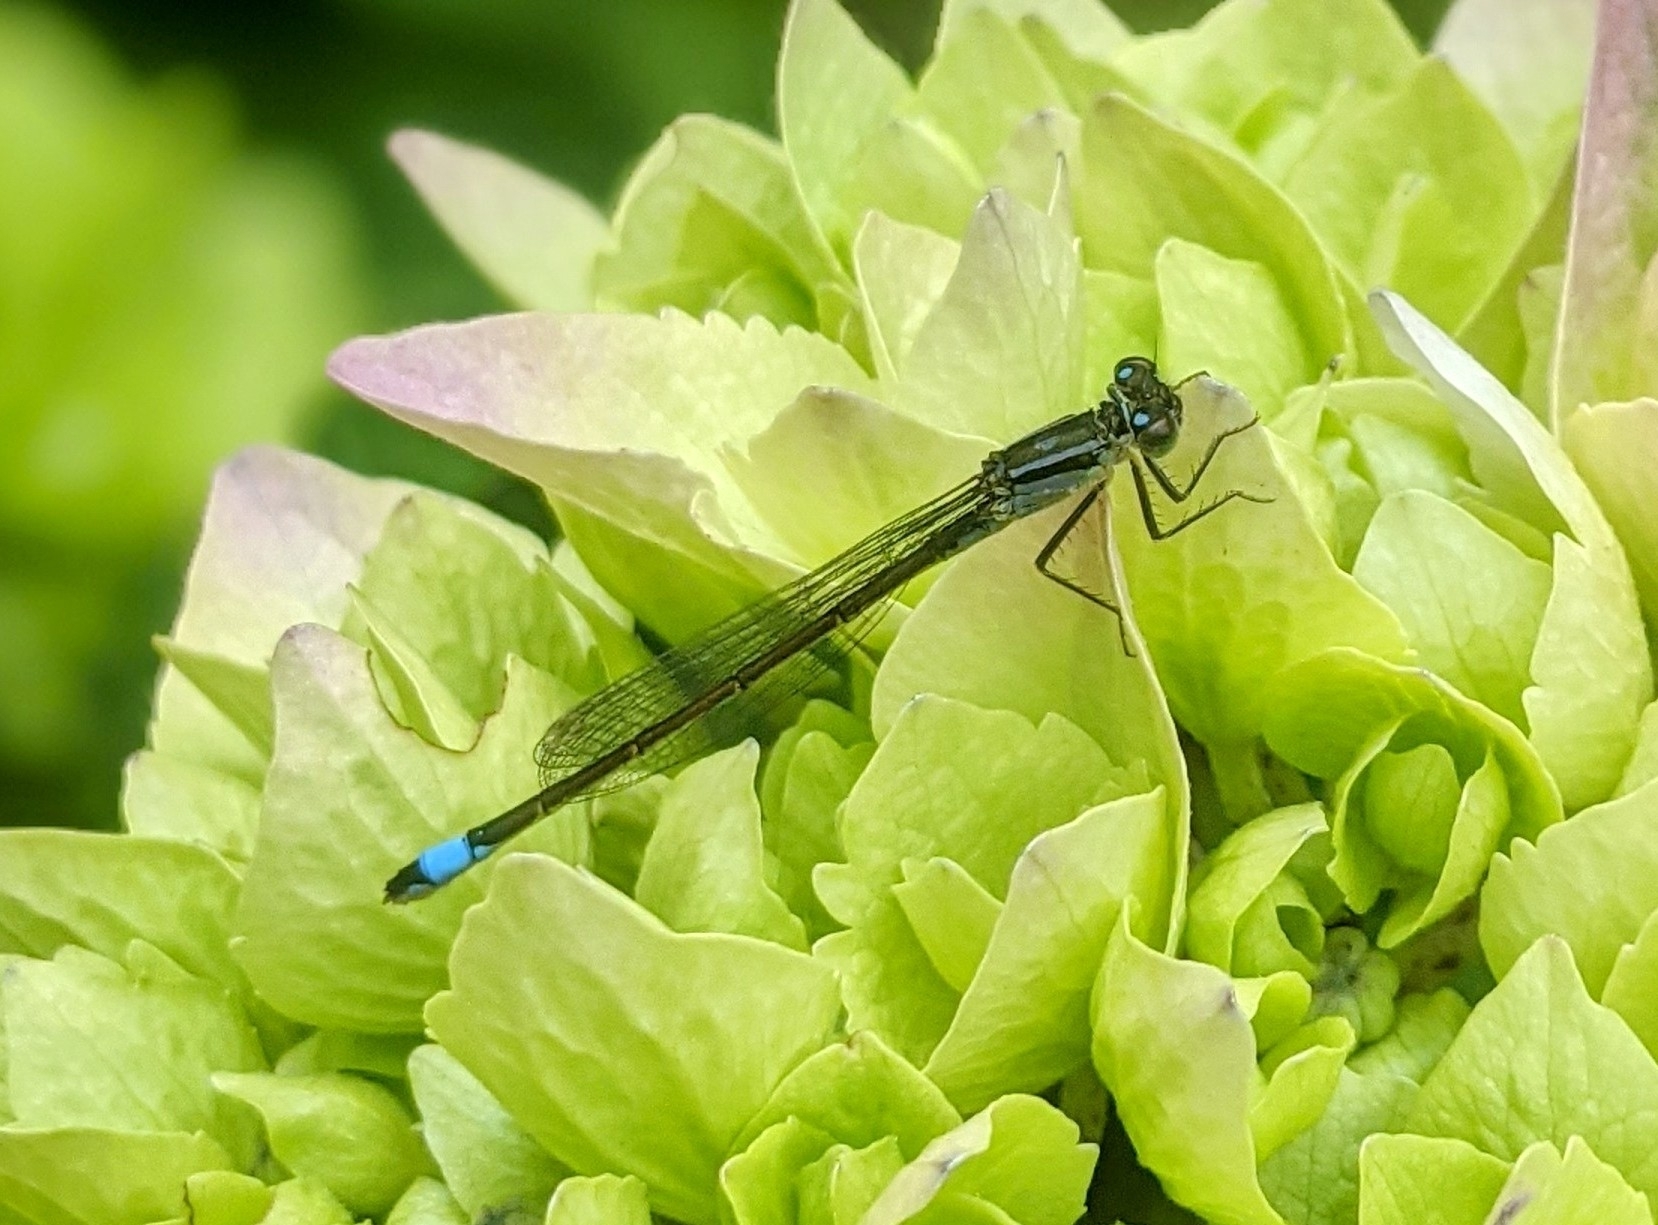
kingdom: Animalia
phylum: Arthropoda
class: Insecta
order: Odonata
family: Coenagrionidae
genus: Ischnura
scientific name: Ischnura elegans
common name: Blue-tailed damselfly
